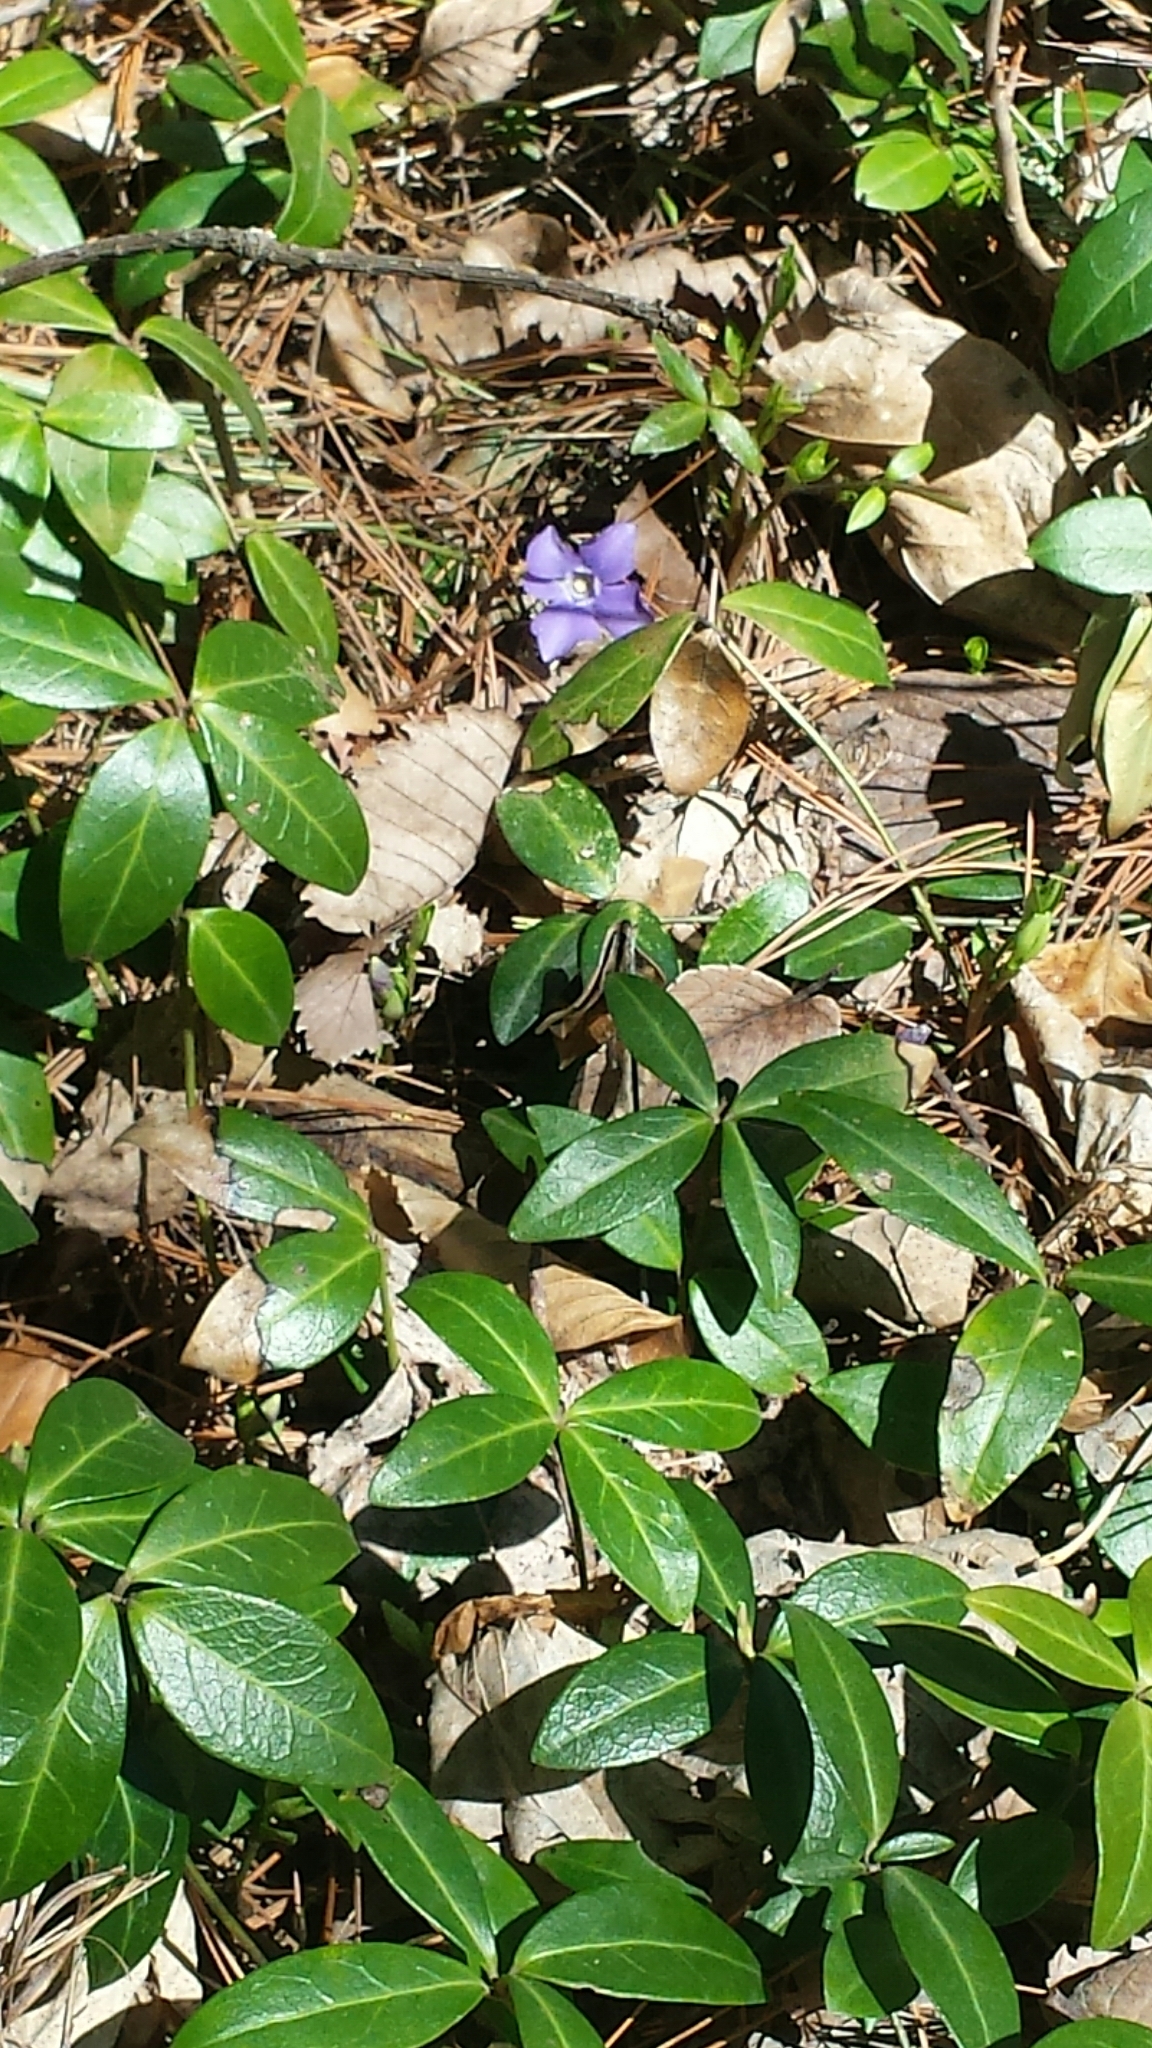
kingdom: Plantae
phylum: Tracheophyta
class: Magnoliopsida
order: Gentianales
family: Apocynaceae
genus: Vinca
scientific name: Vinca minor
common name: Lesser periwinkle
